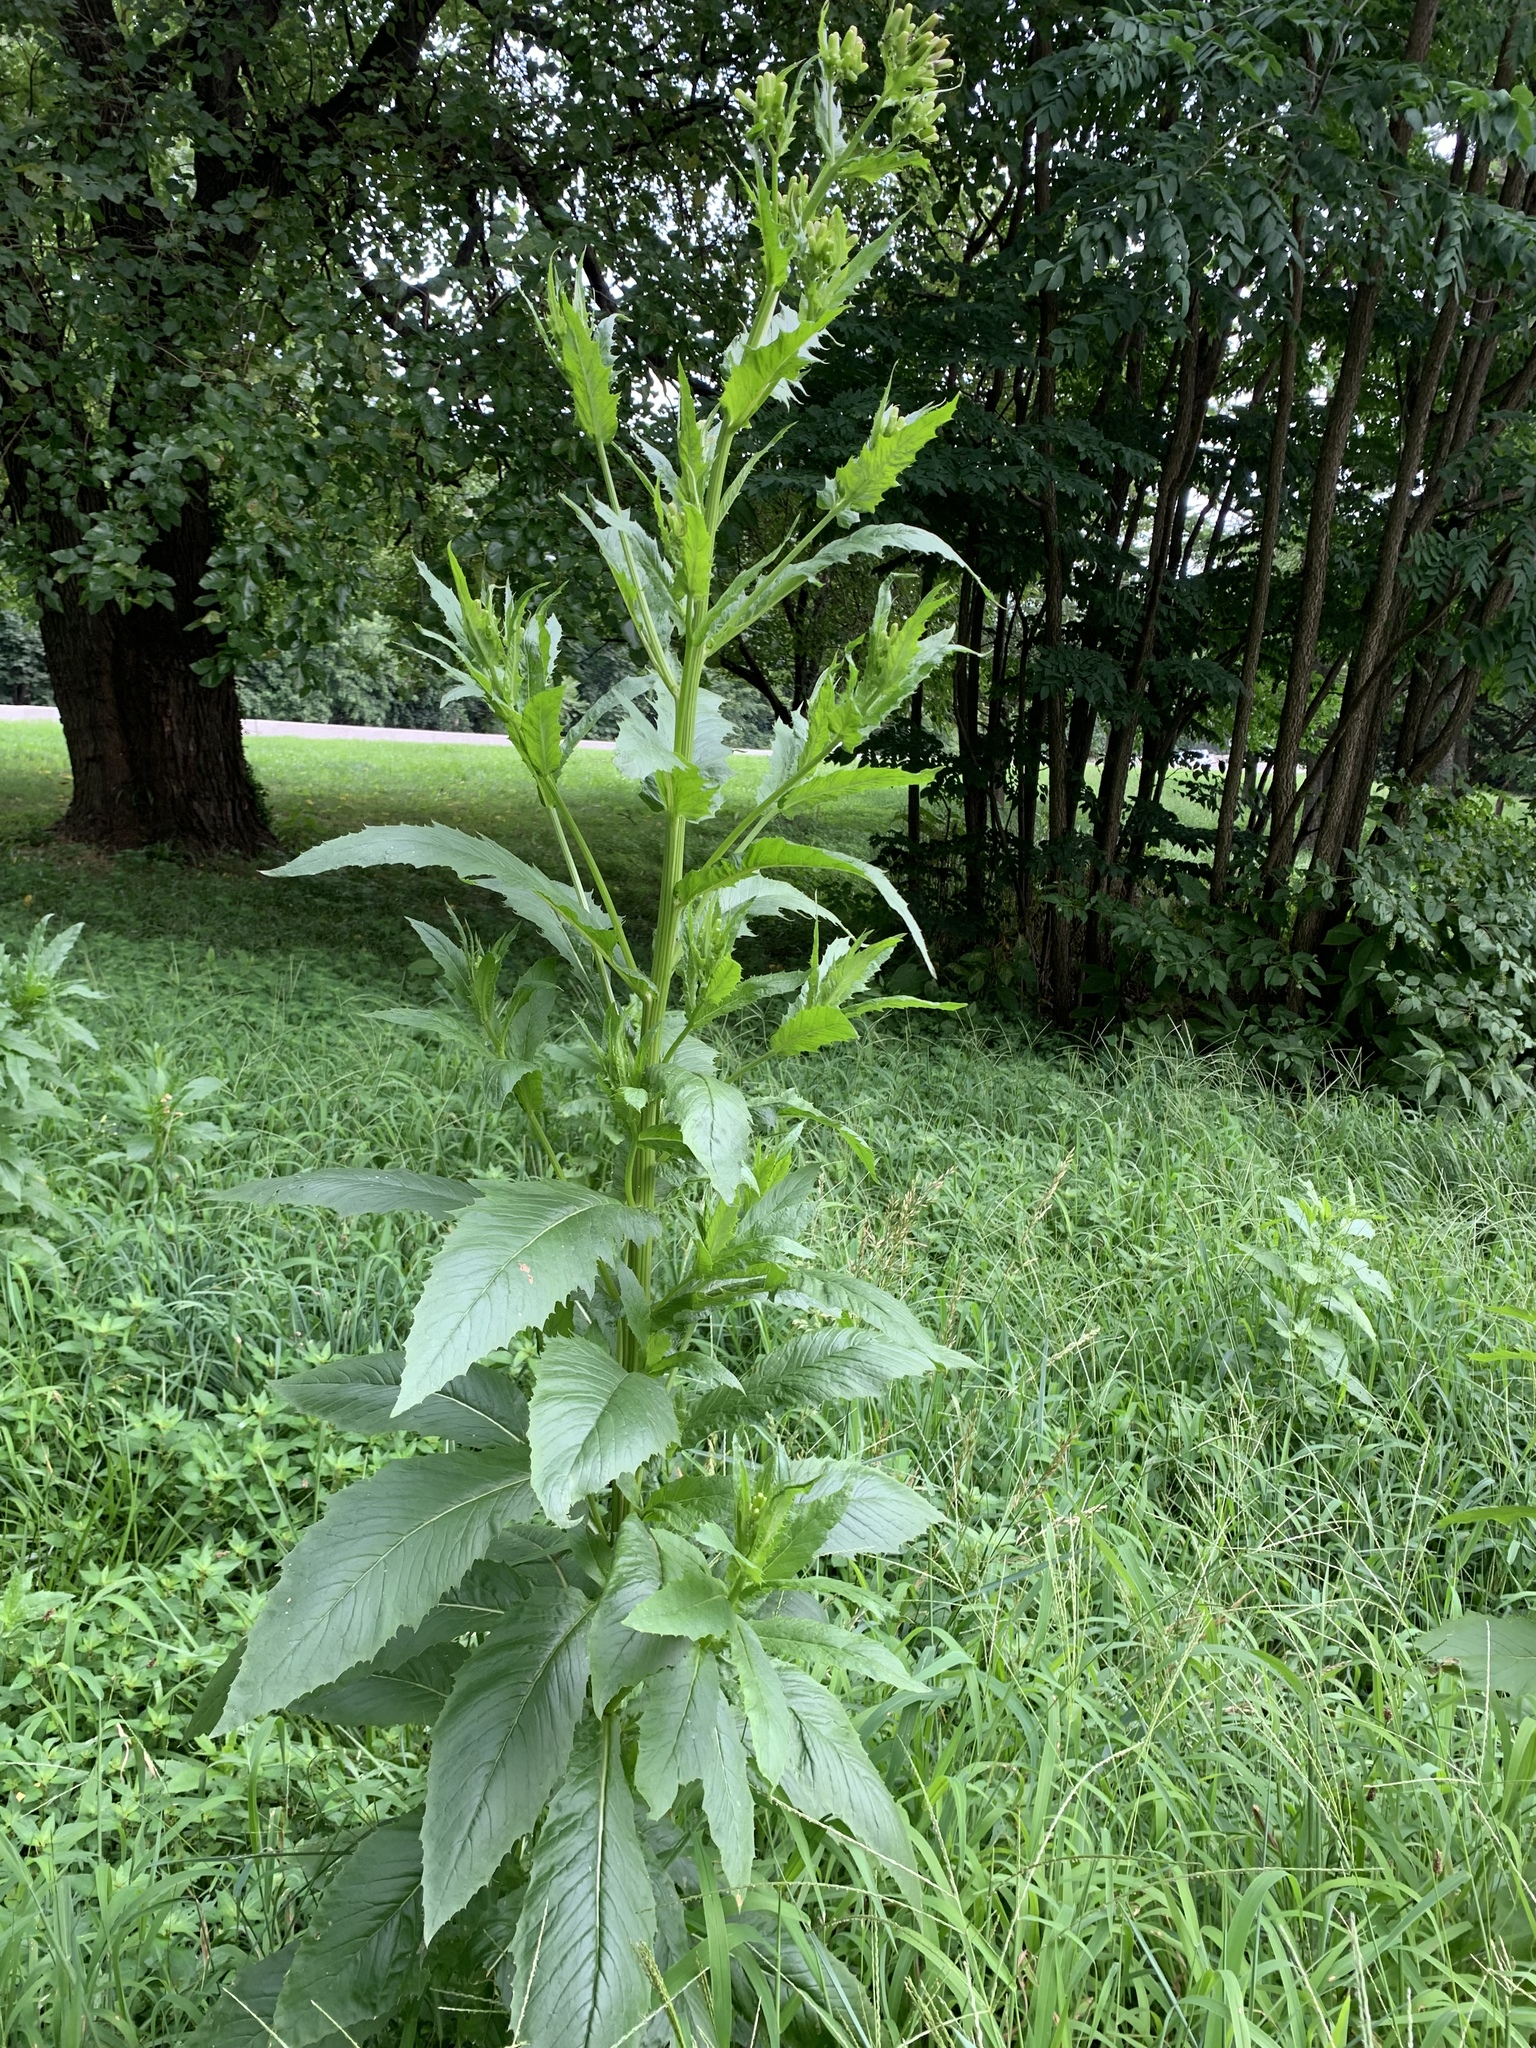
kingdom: Plantae
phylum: Tracheophyta
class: Magnoliopsida
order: Asterales
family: Asteraceae
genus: Erechtites
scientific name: Erechtites hieraciifolius
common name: American burnweed
